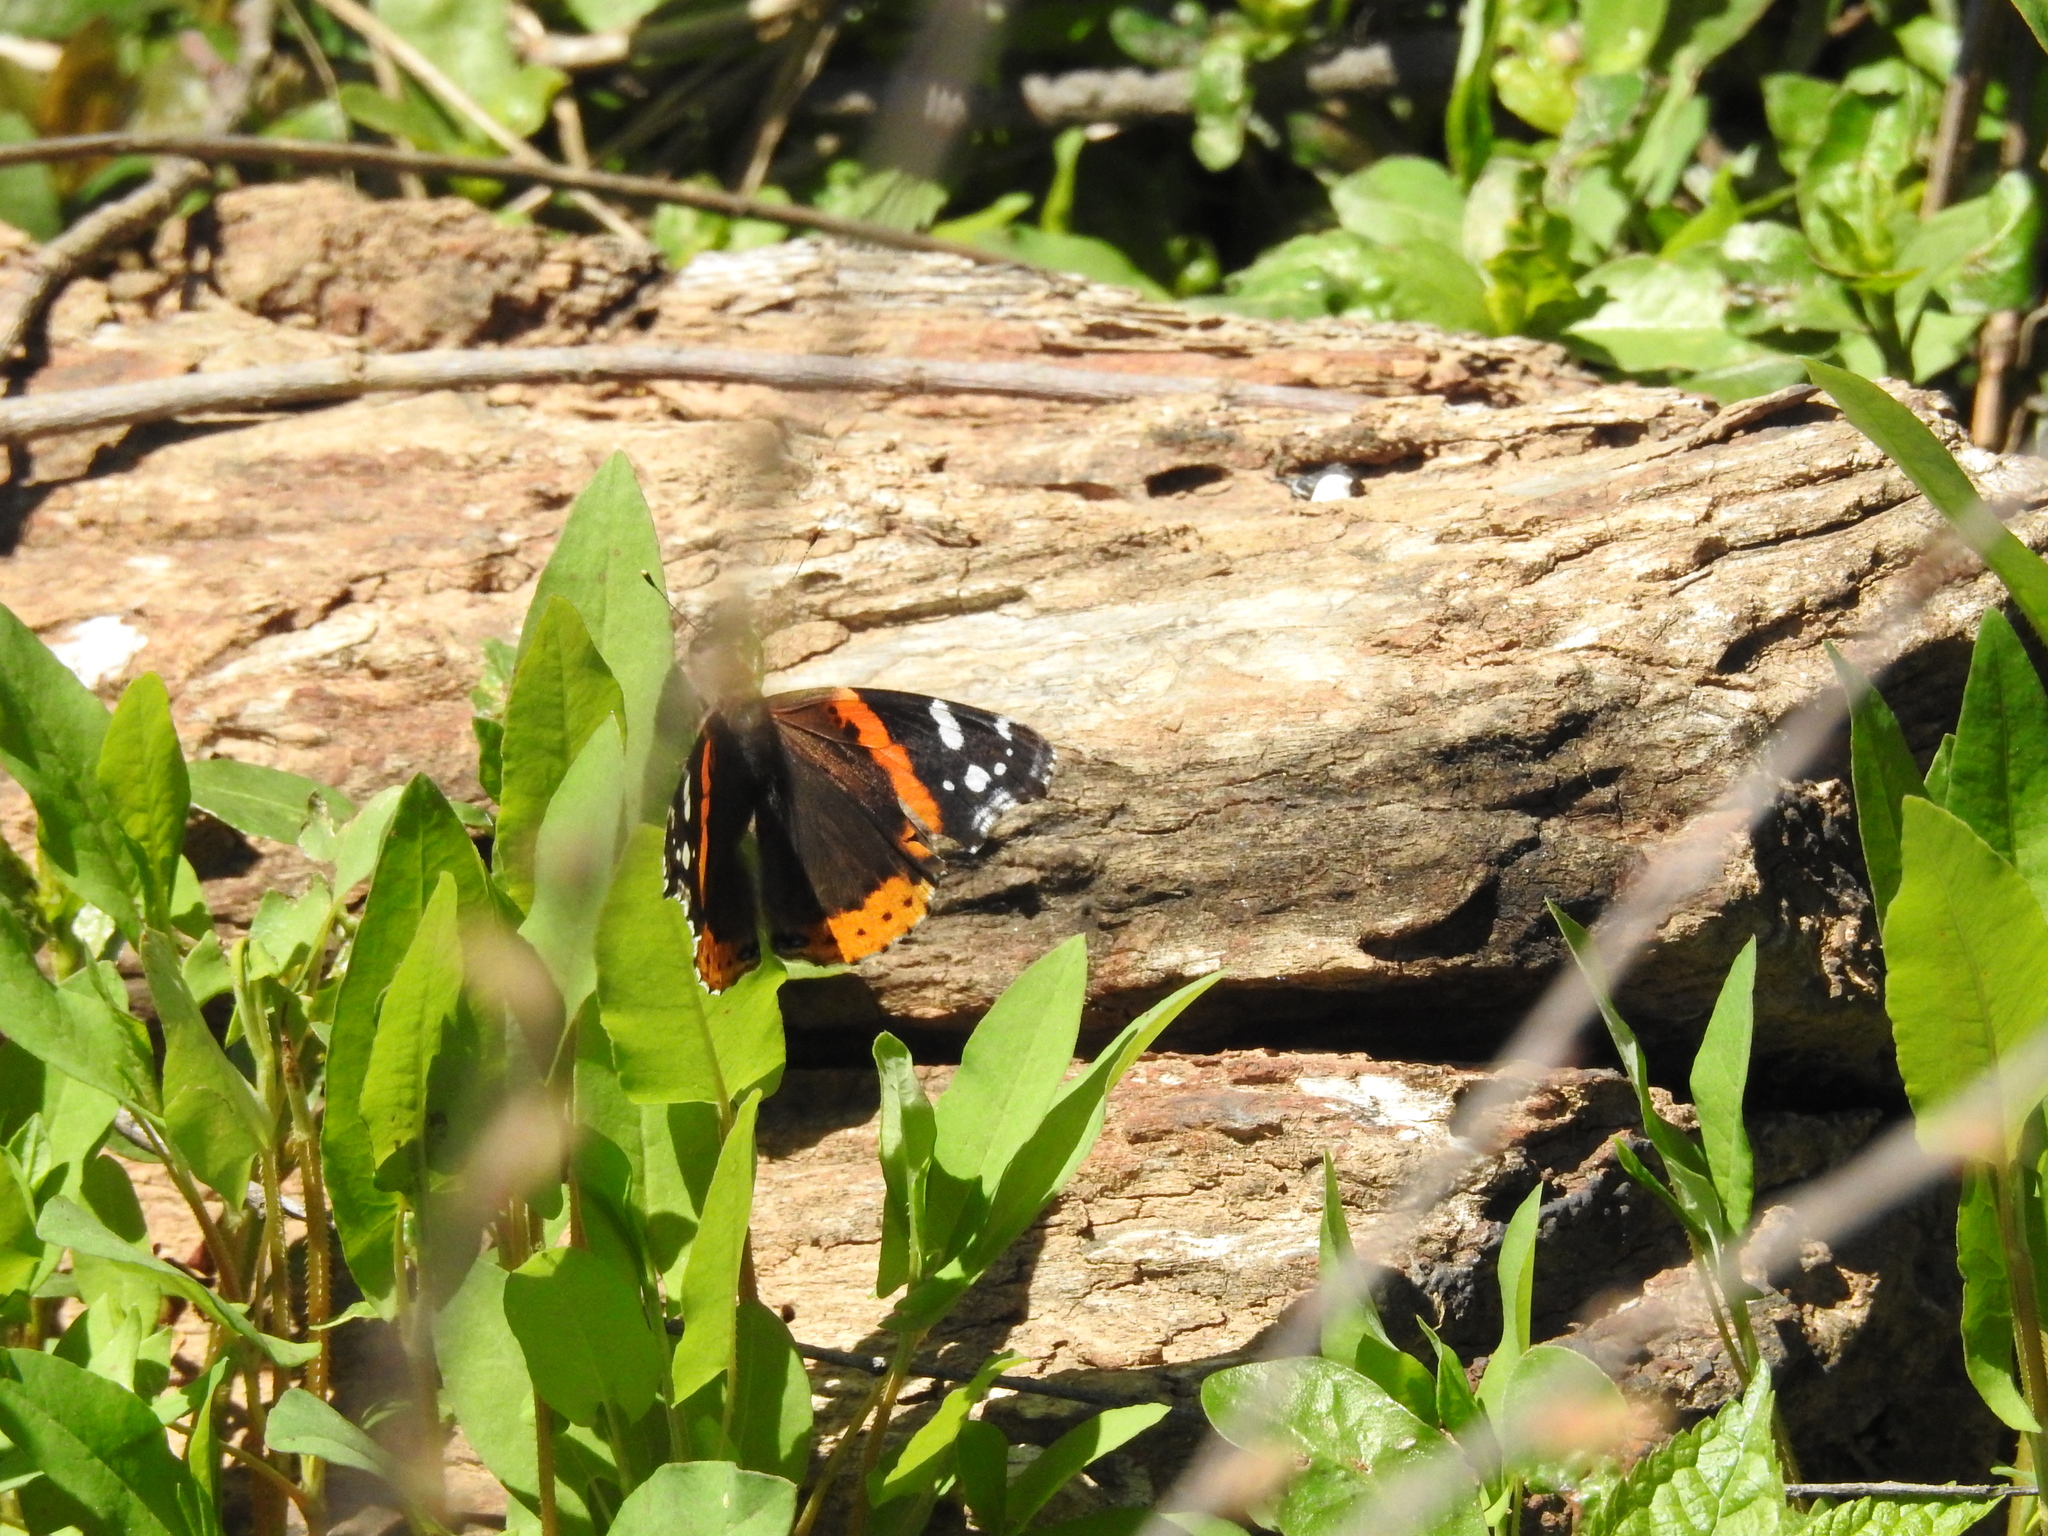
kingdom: Animalia
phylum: Arthropoda
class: Insecta
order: Lepidoptera
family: Nymphalidae
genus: Vanessa
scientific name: Vanessa atalanta
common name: Red admiral
